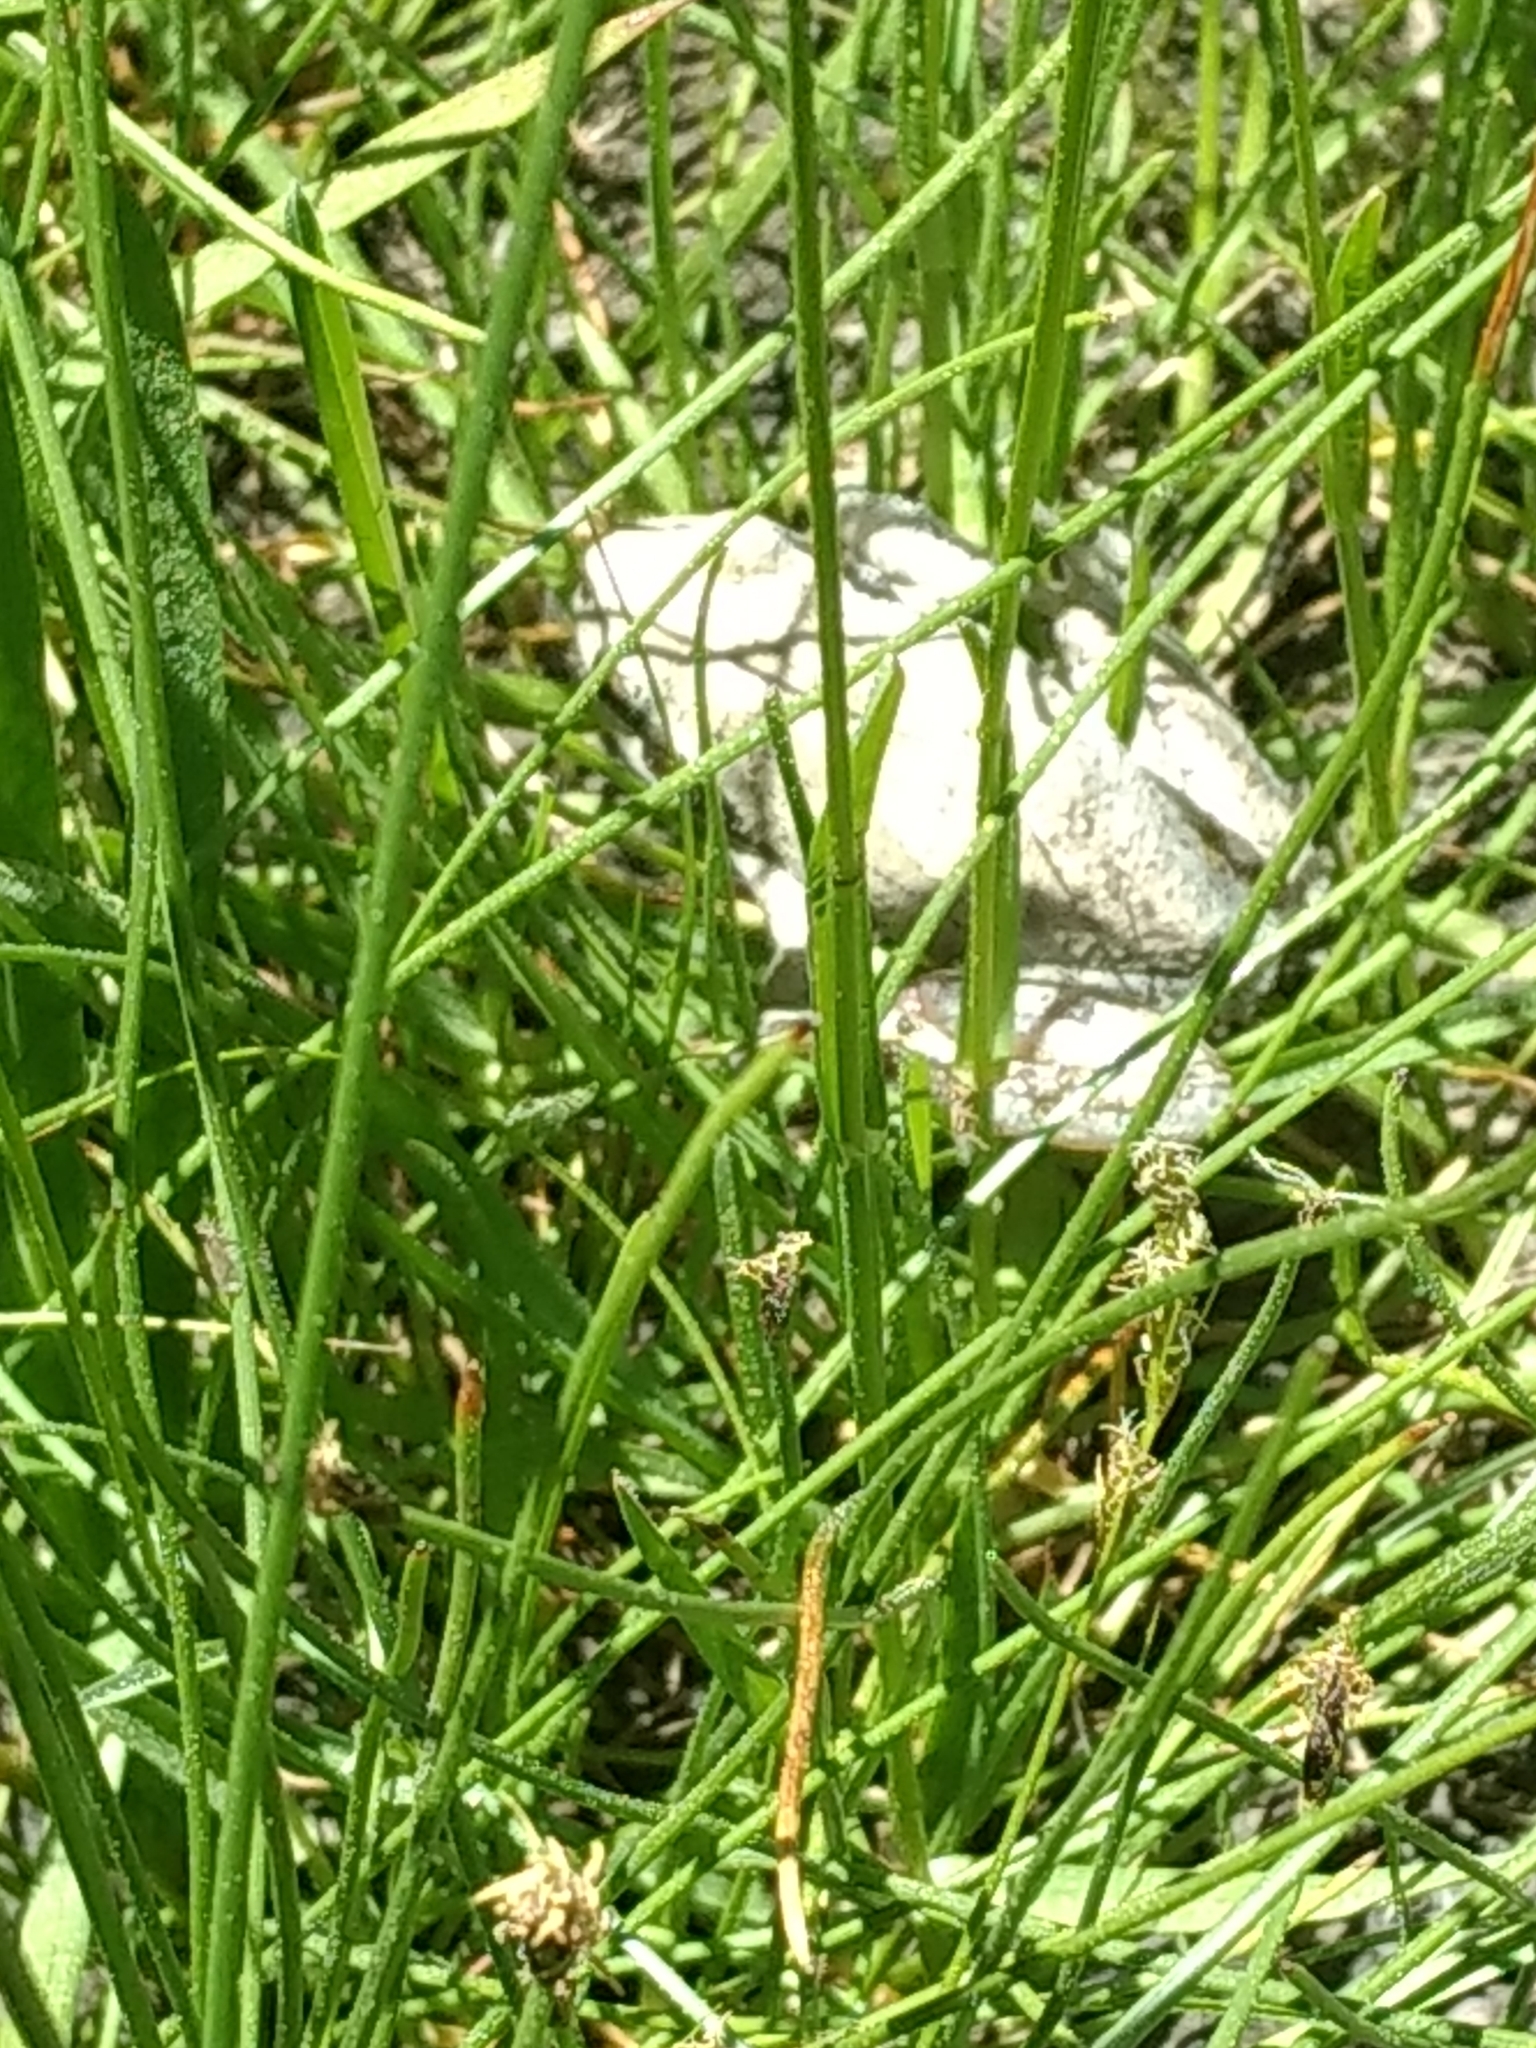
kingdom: Animalia
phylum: Chordata
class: Amphibia
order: Anura
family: Hylidae
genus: Pseudacris
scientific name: Pseudacris regilla
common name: Pacific chorus frog
